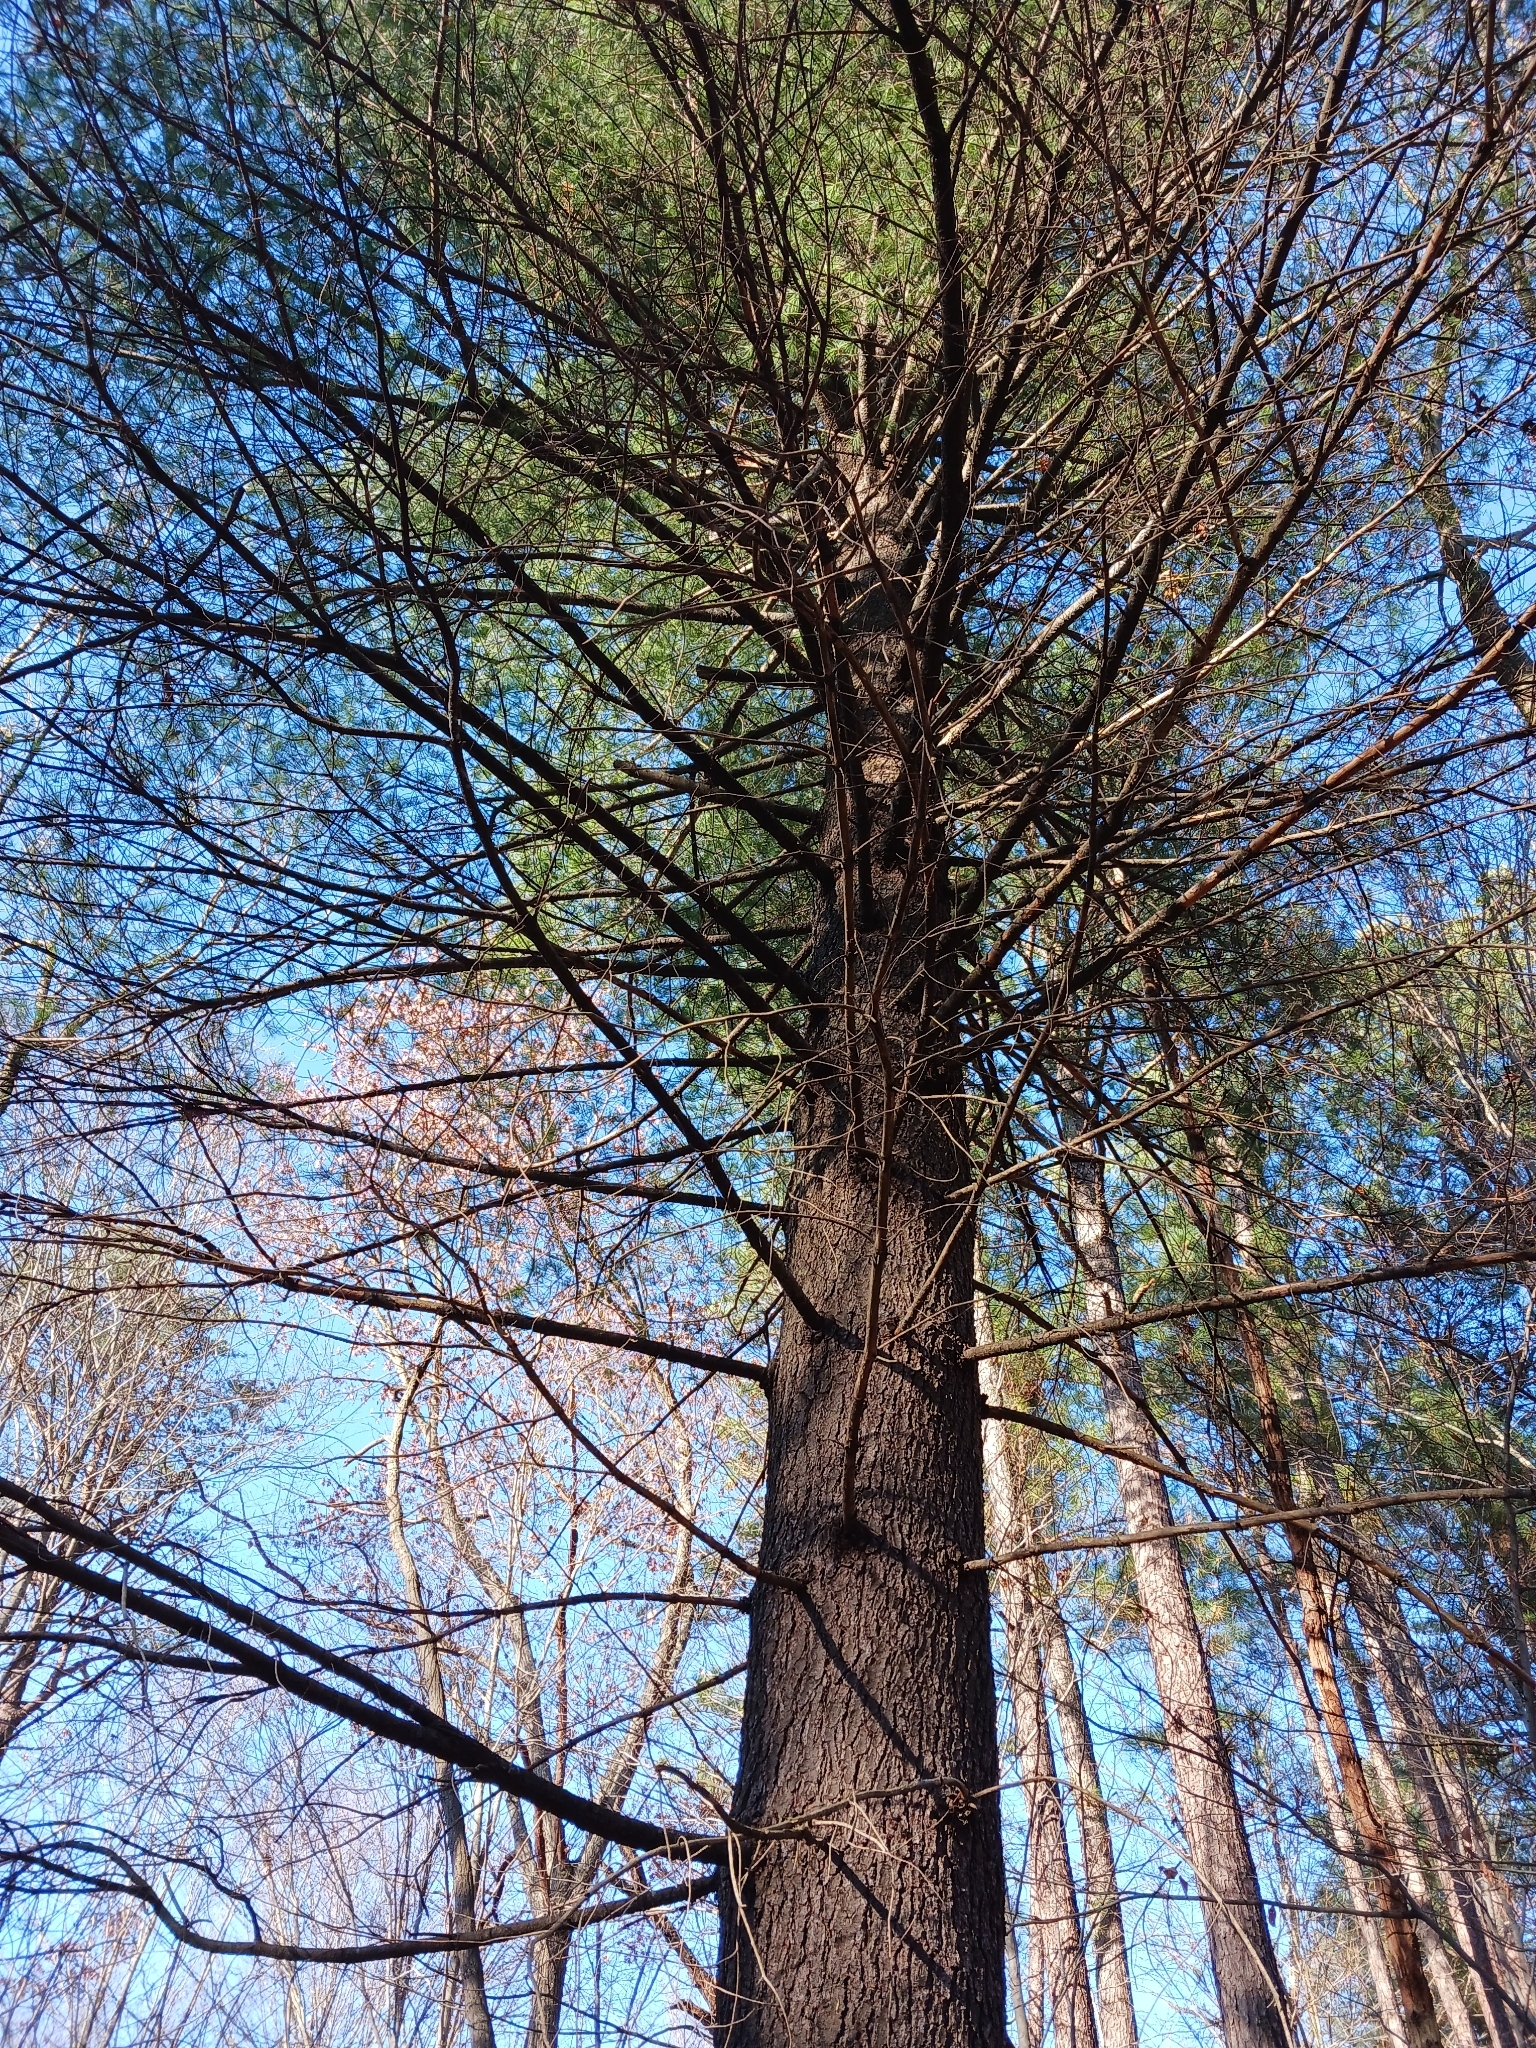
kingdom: Plantae
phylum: Tracheophyta
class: Pinopsida
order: Pinales
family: Pinaceae
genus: Pinus
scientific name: Pinus strobus
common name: Weymouth pine
